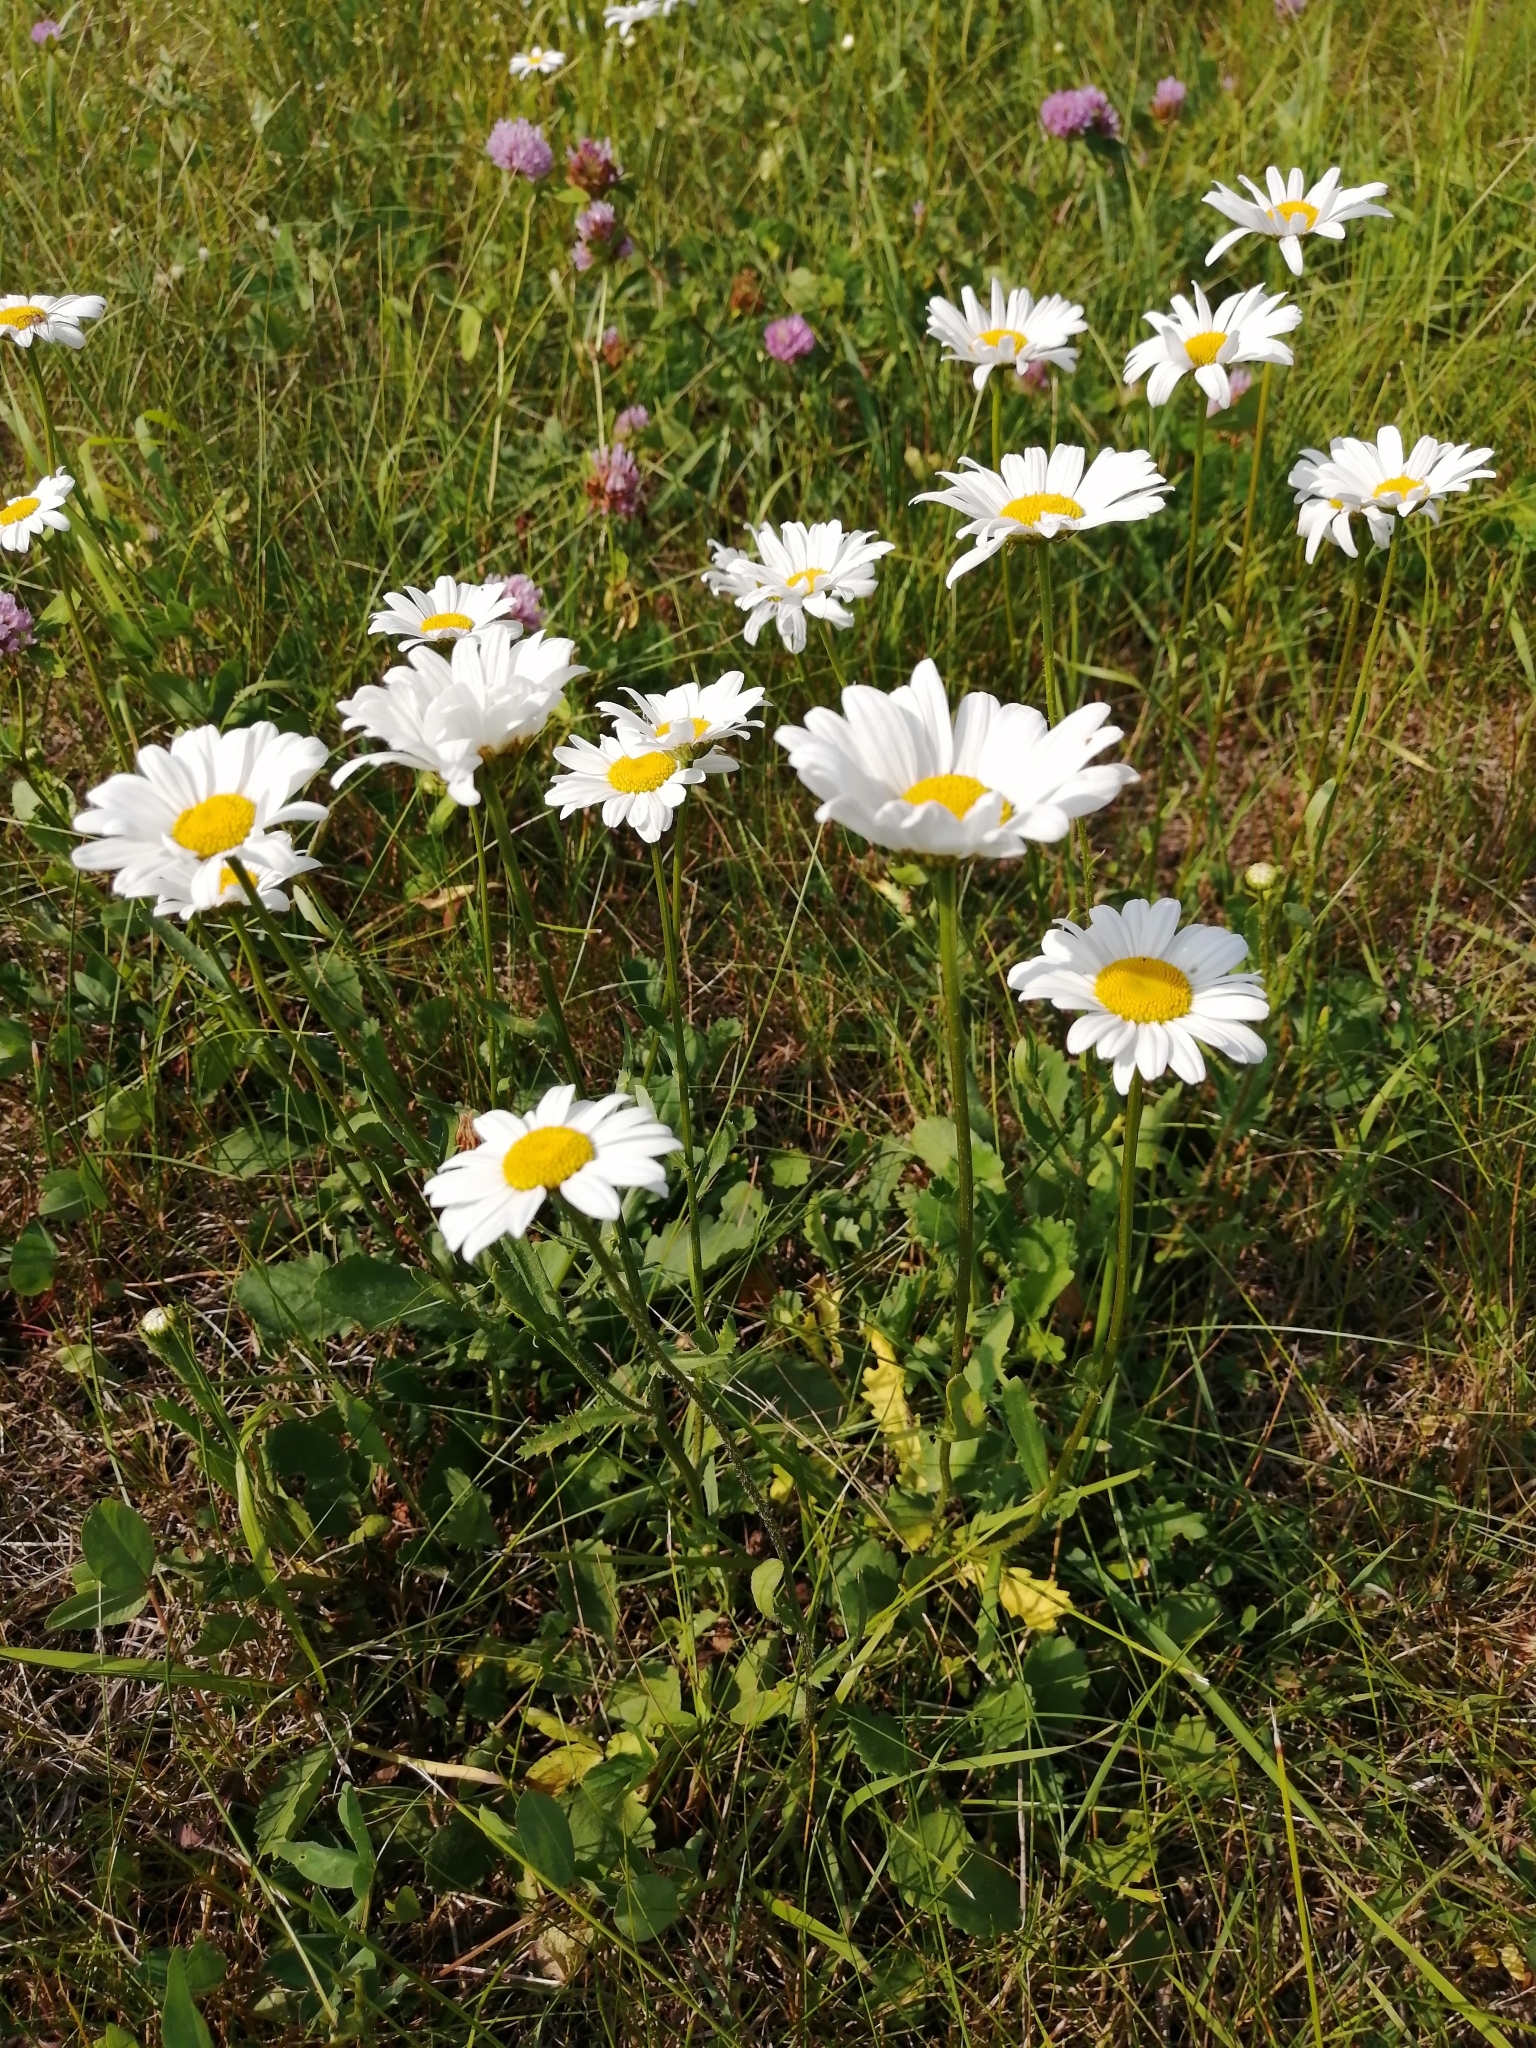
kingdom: Plantae
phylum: Tracheophyta
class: Magnoliopsida
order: Asterales
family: Asteraceae
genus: Leucanthemum
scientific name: Leucanthemum ircutianum
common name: Daisy
